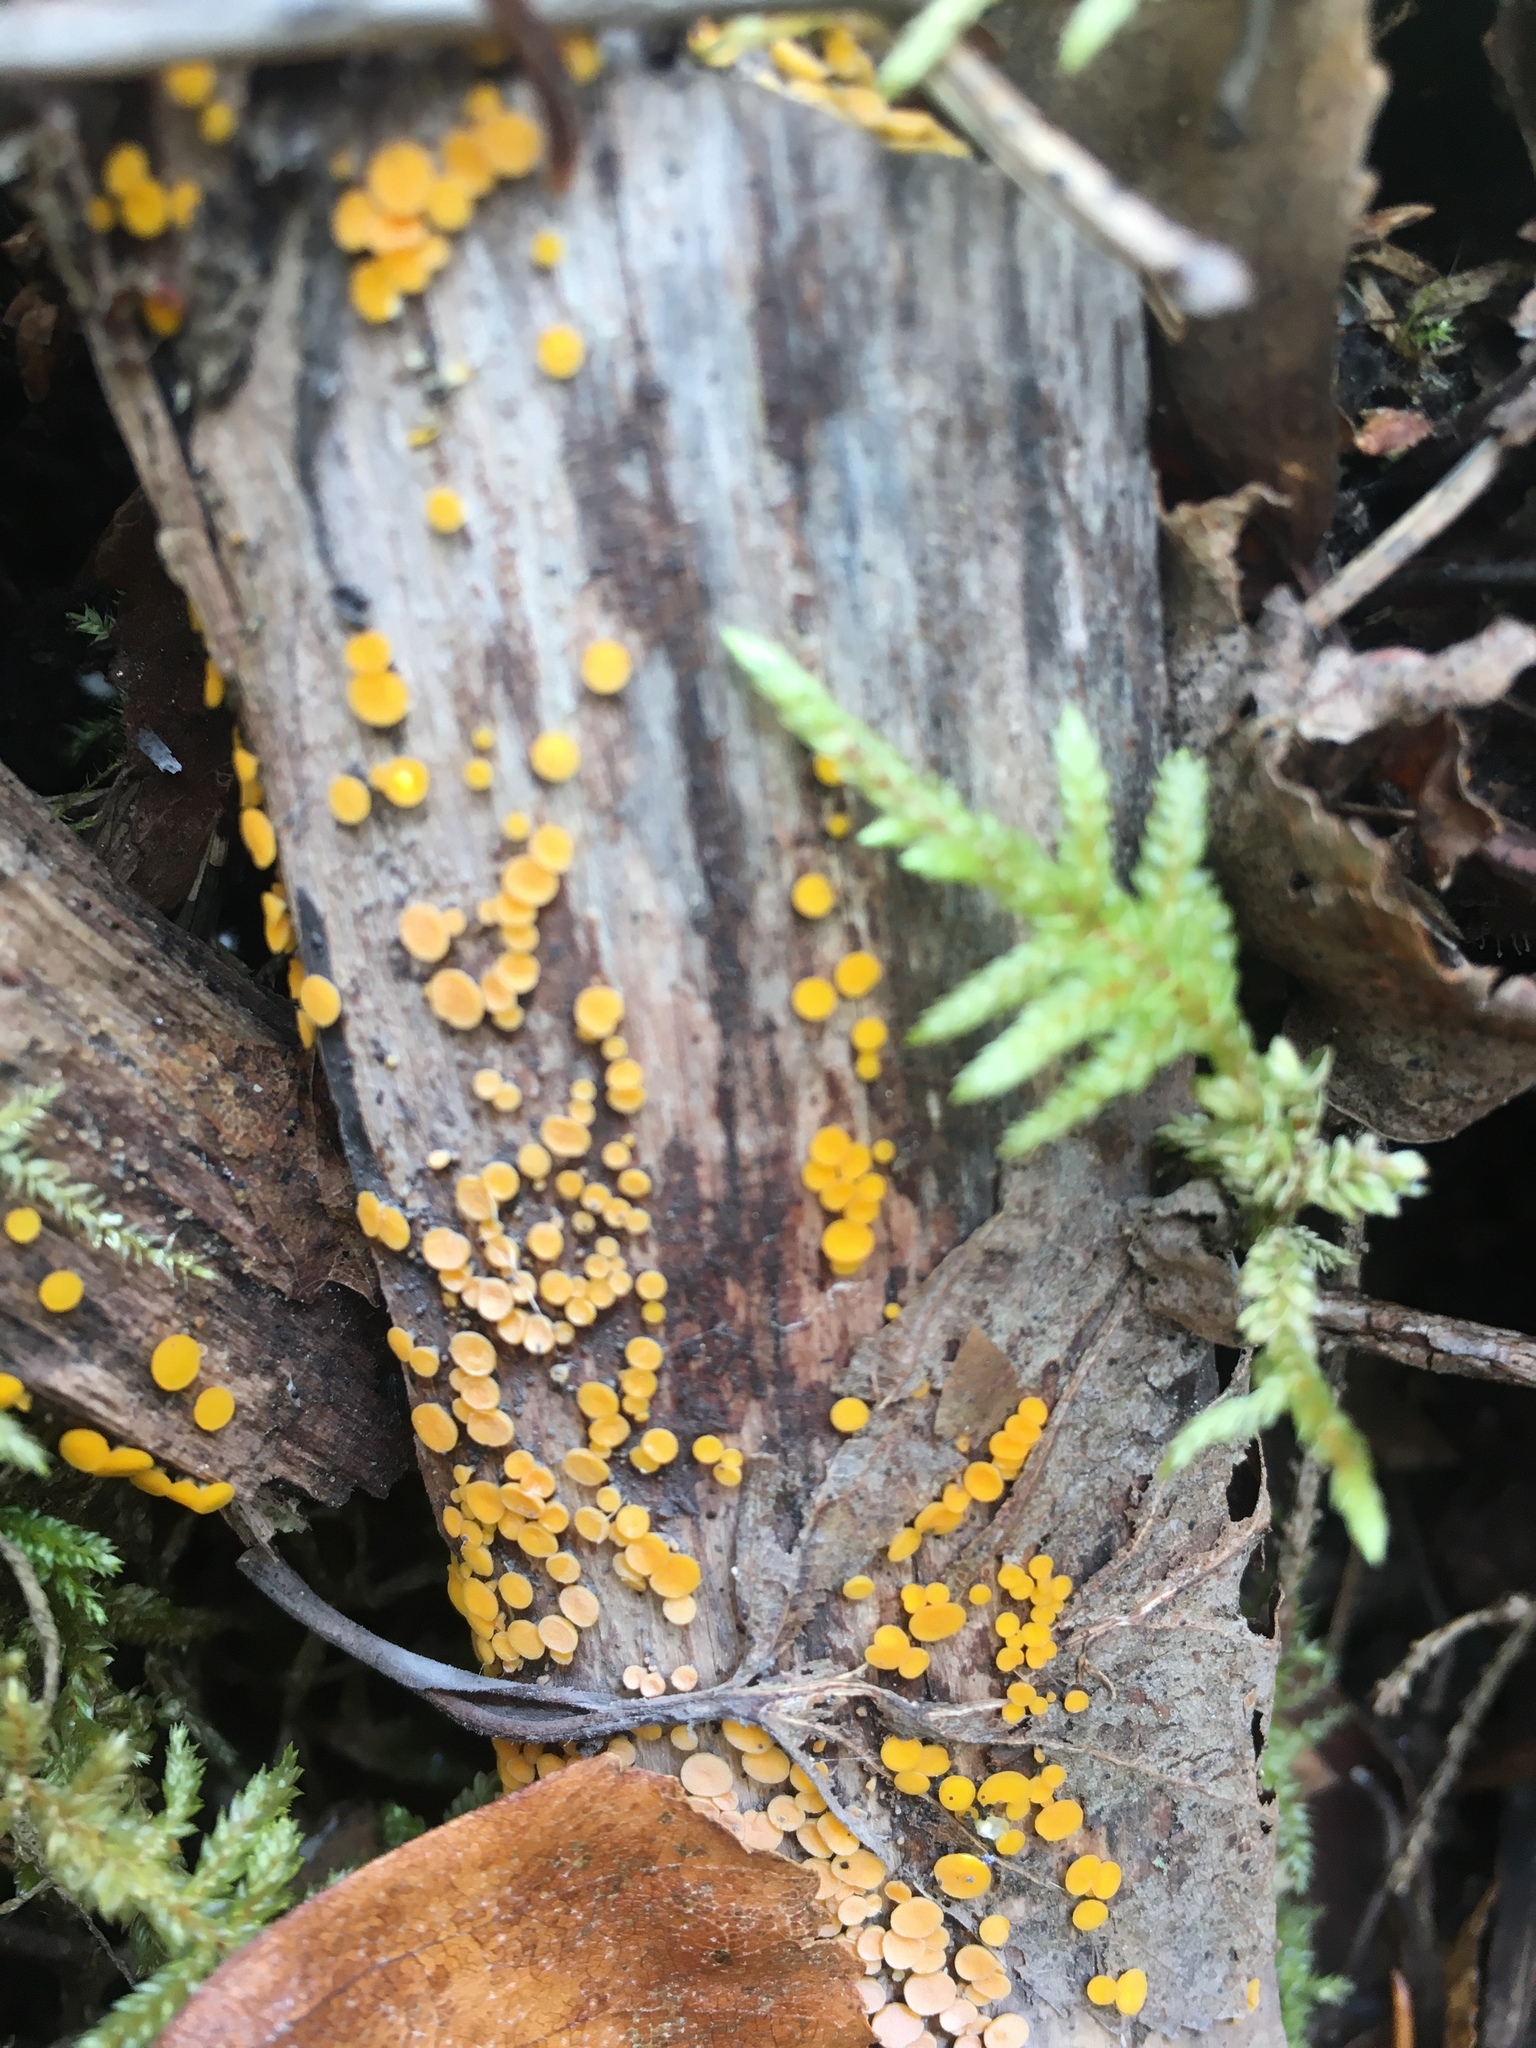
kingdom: Fungi
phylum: Ascomycota
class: Leotiomycetes
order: Helotiales
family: Pezizellaceae
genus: Calycina
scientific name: Calycina citrina
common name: Yellow fairy cups
